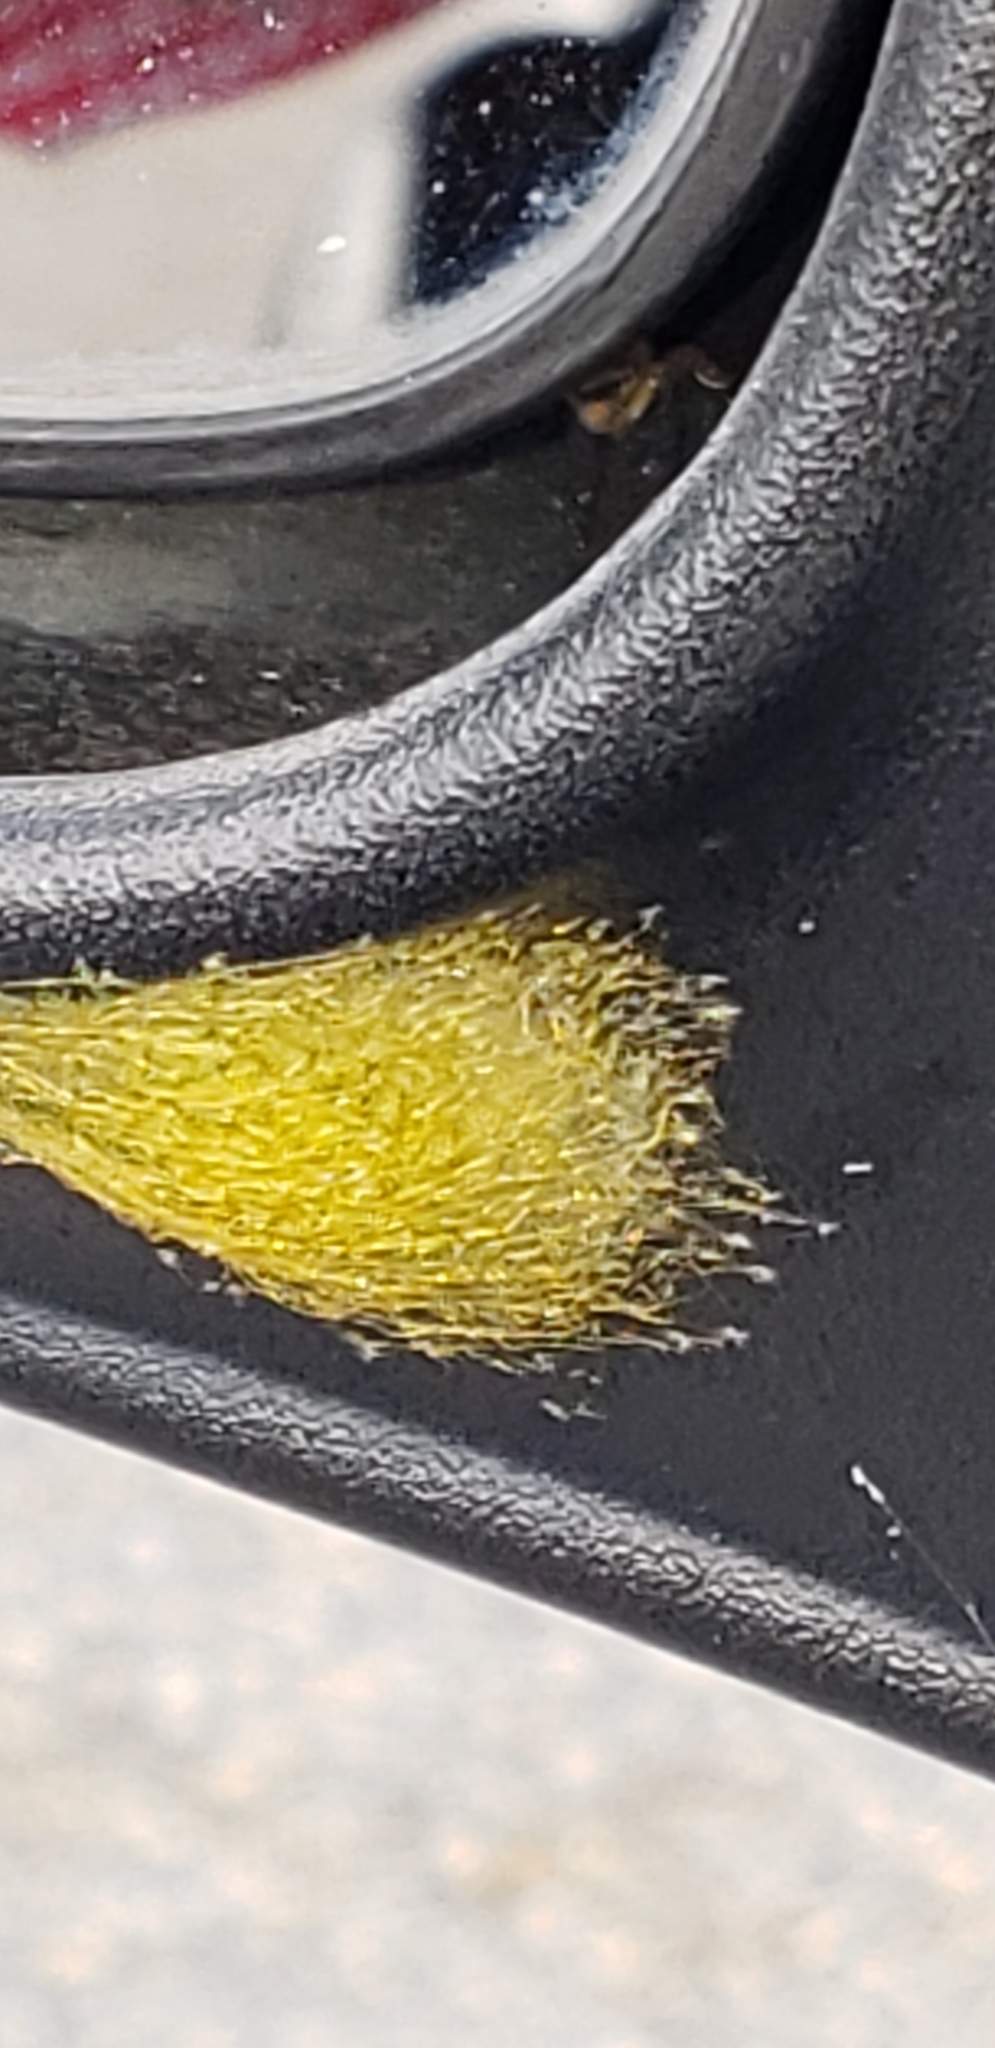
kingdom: Animalia
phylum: Arthropoda
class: Arachnida
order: Araneae
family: Araneidae
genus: Gasteracantha
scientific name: Gasteracantha cancriformis
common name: Orb weavers
